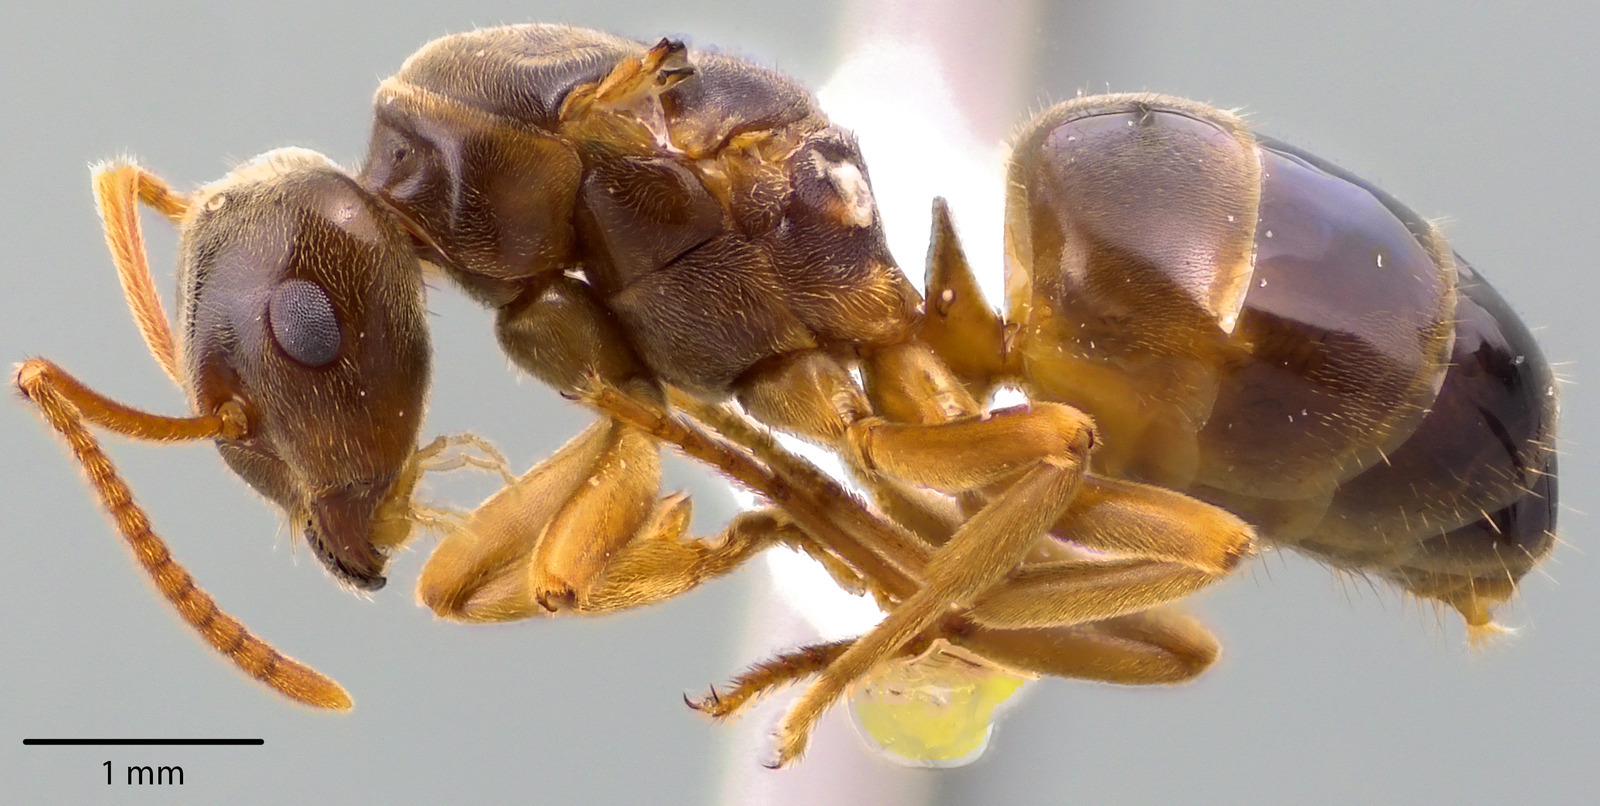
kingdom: Animalia
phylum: Arthropoda
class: Insecta
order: Hymenoptera
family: Formicidae
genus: Lasius
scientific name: Lasius speculiventris
